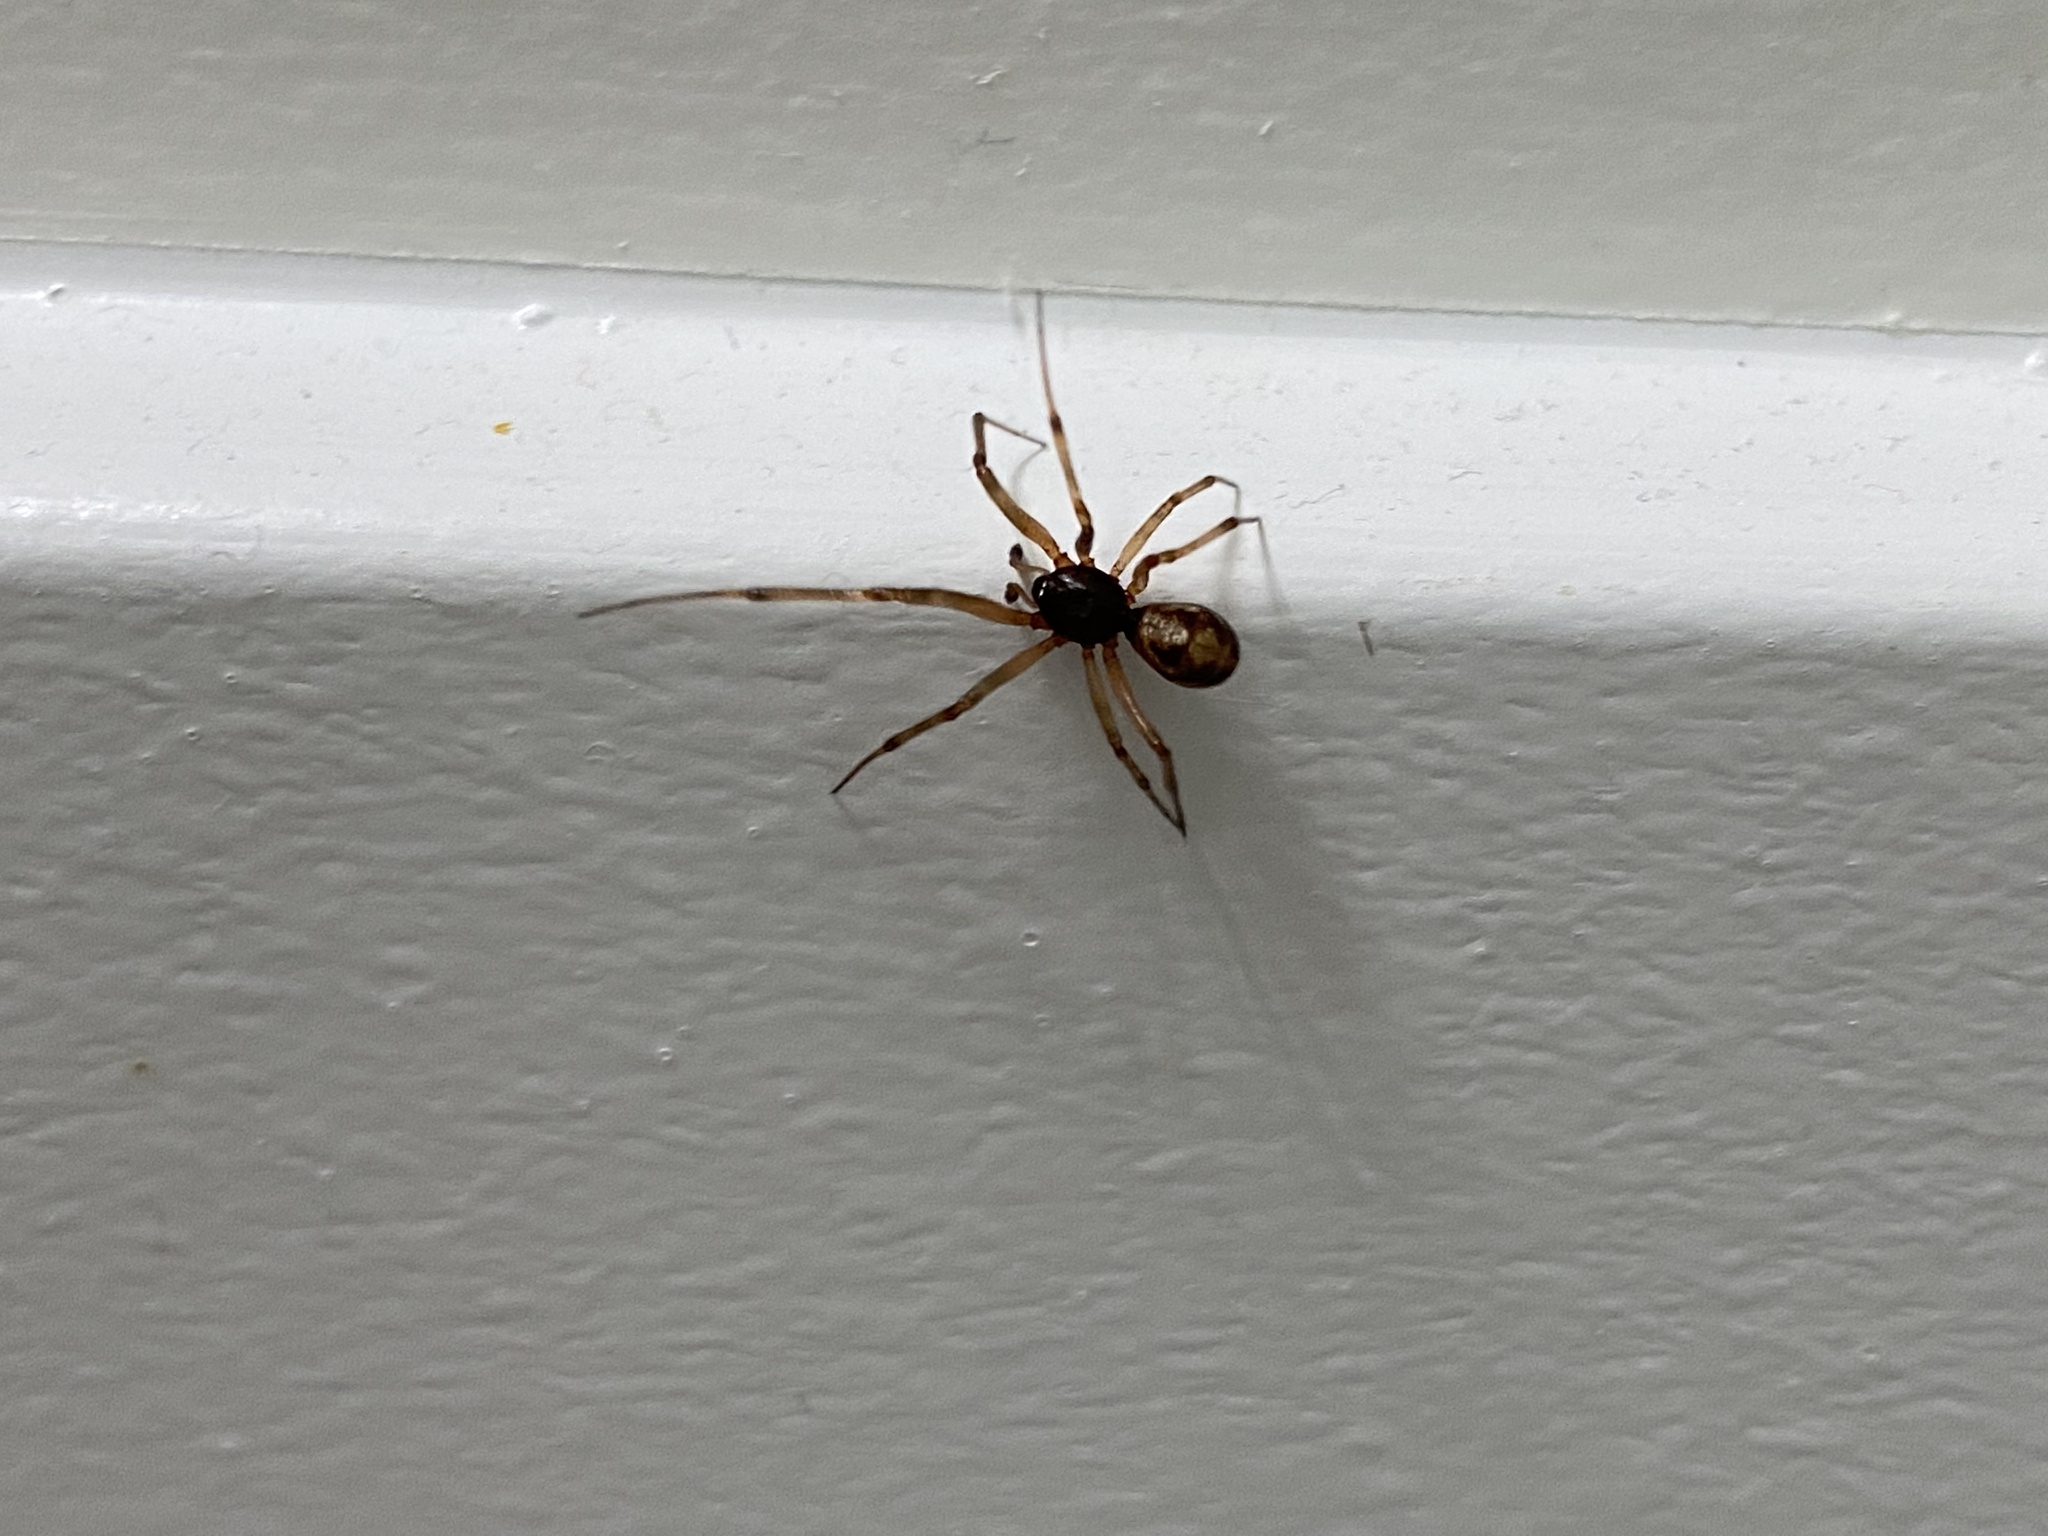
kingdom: Animalia
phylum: Arthropoda
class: Arachnida
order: Araneae
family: Theridiidae
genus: Steatoda
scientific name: Steatoda triangulosa
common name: Triangulate bud spider
